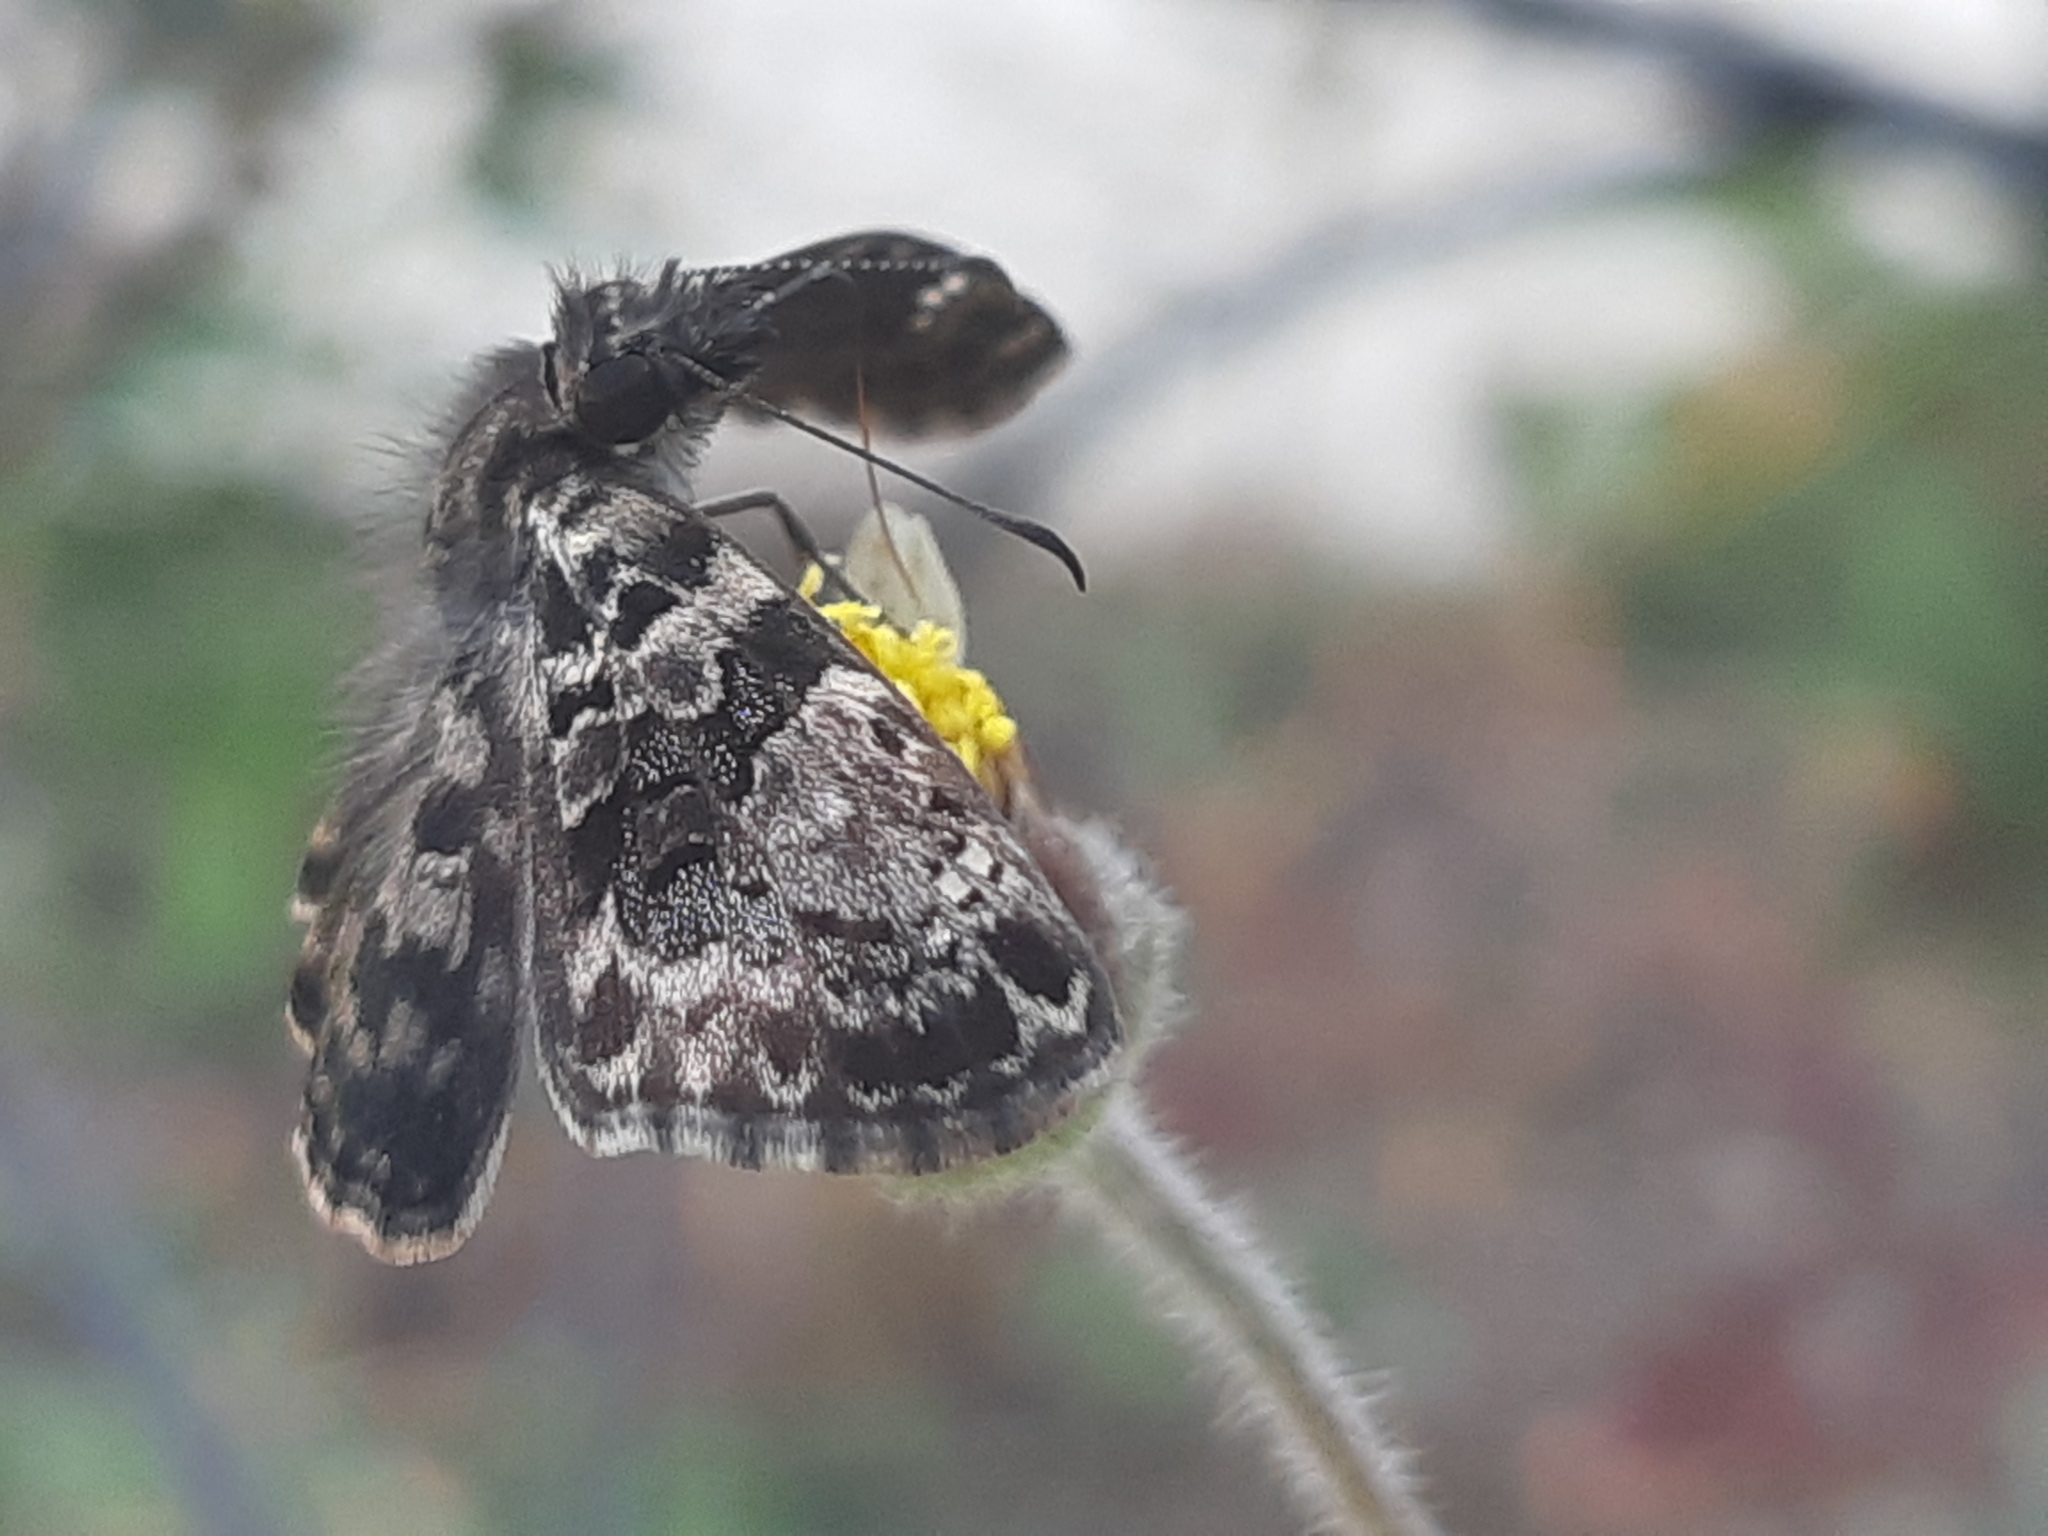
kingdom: Animalia
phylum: Arthropoda
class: Insecta
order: Lepidoptera
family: Hesperiidae
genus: Gorgythion
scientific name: Gorgythion beggina
